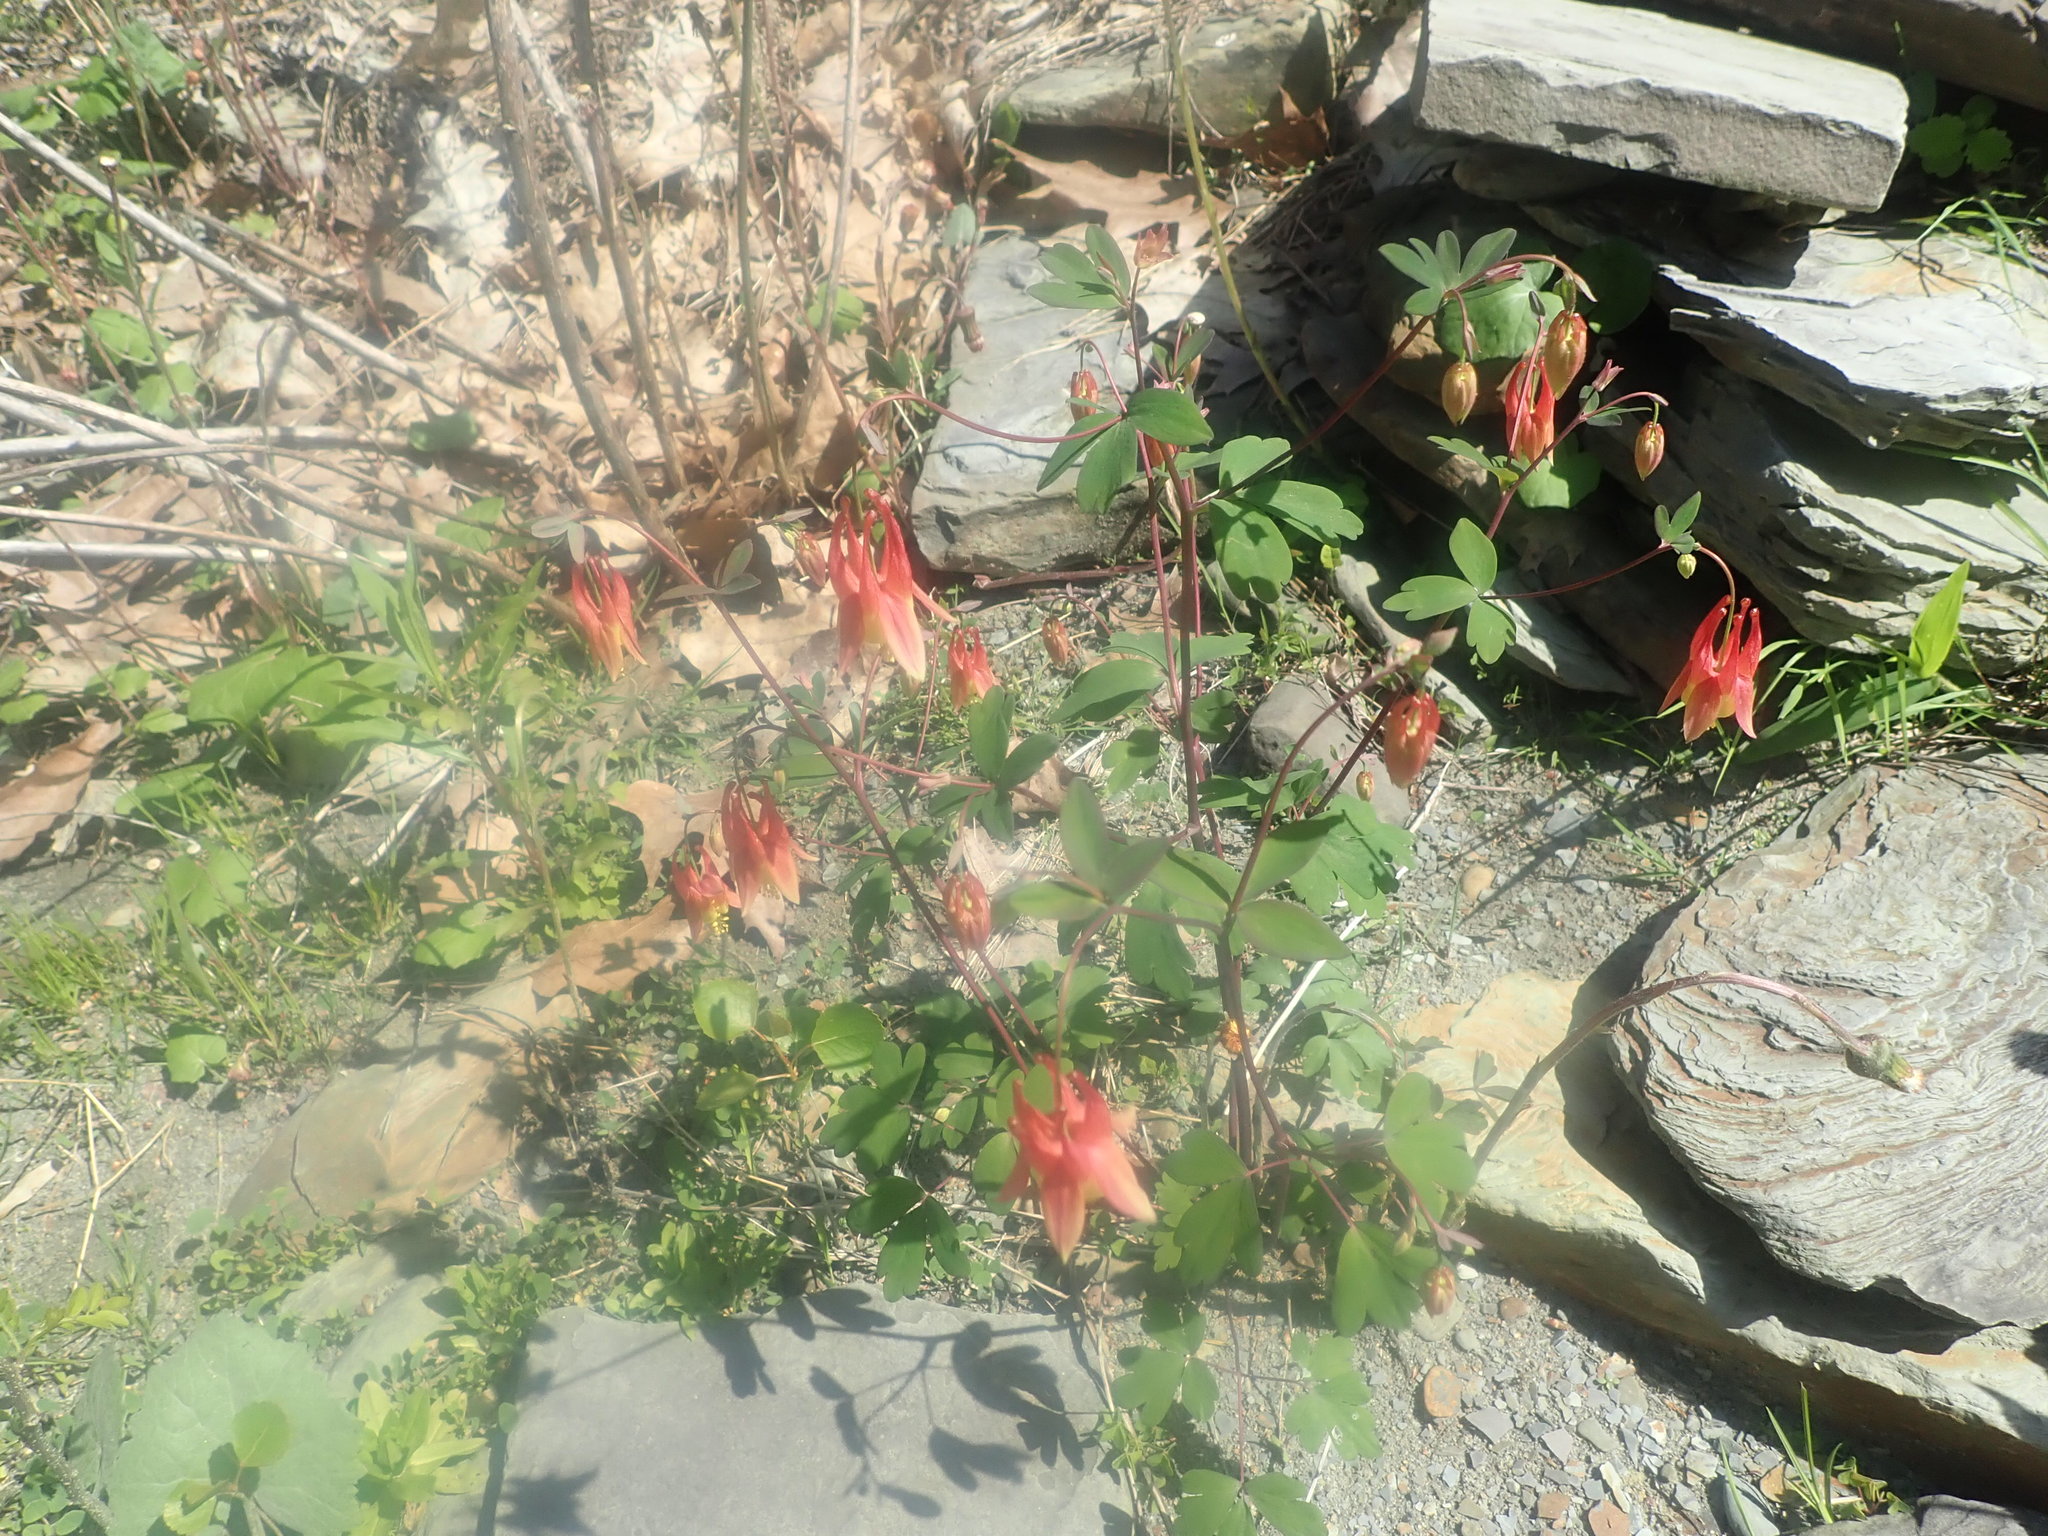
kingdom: Plantae
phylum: Tracheophyta
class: Magnoliopsida
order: Ranunculales
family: Ranunculaceae
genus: Aquilegia
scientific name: Aquilegia canadensis
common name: American columbine
